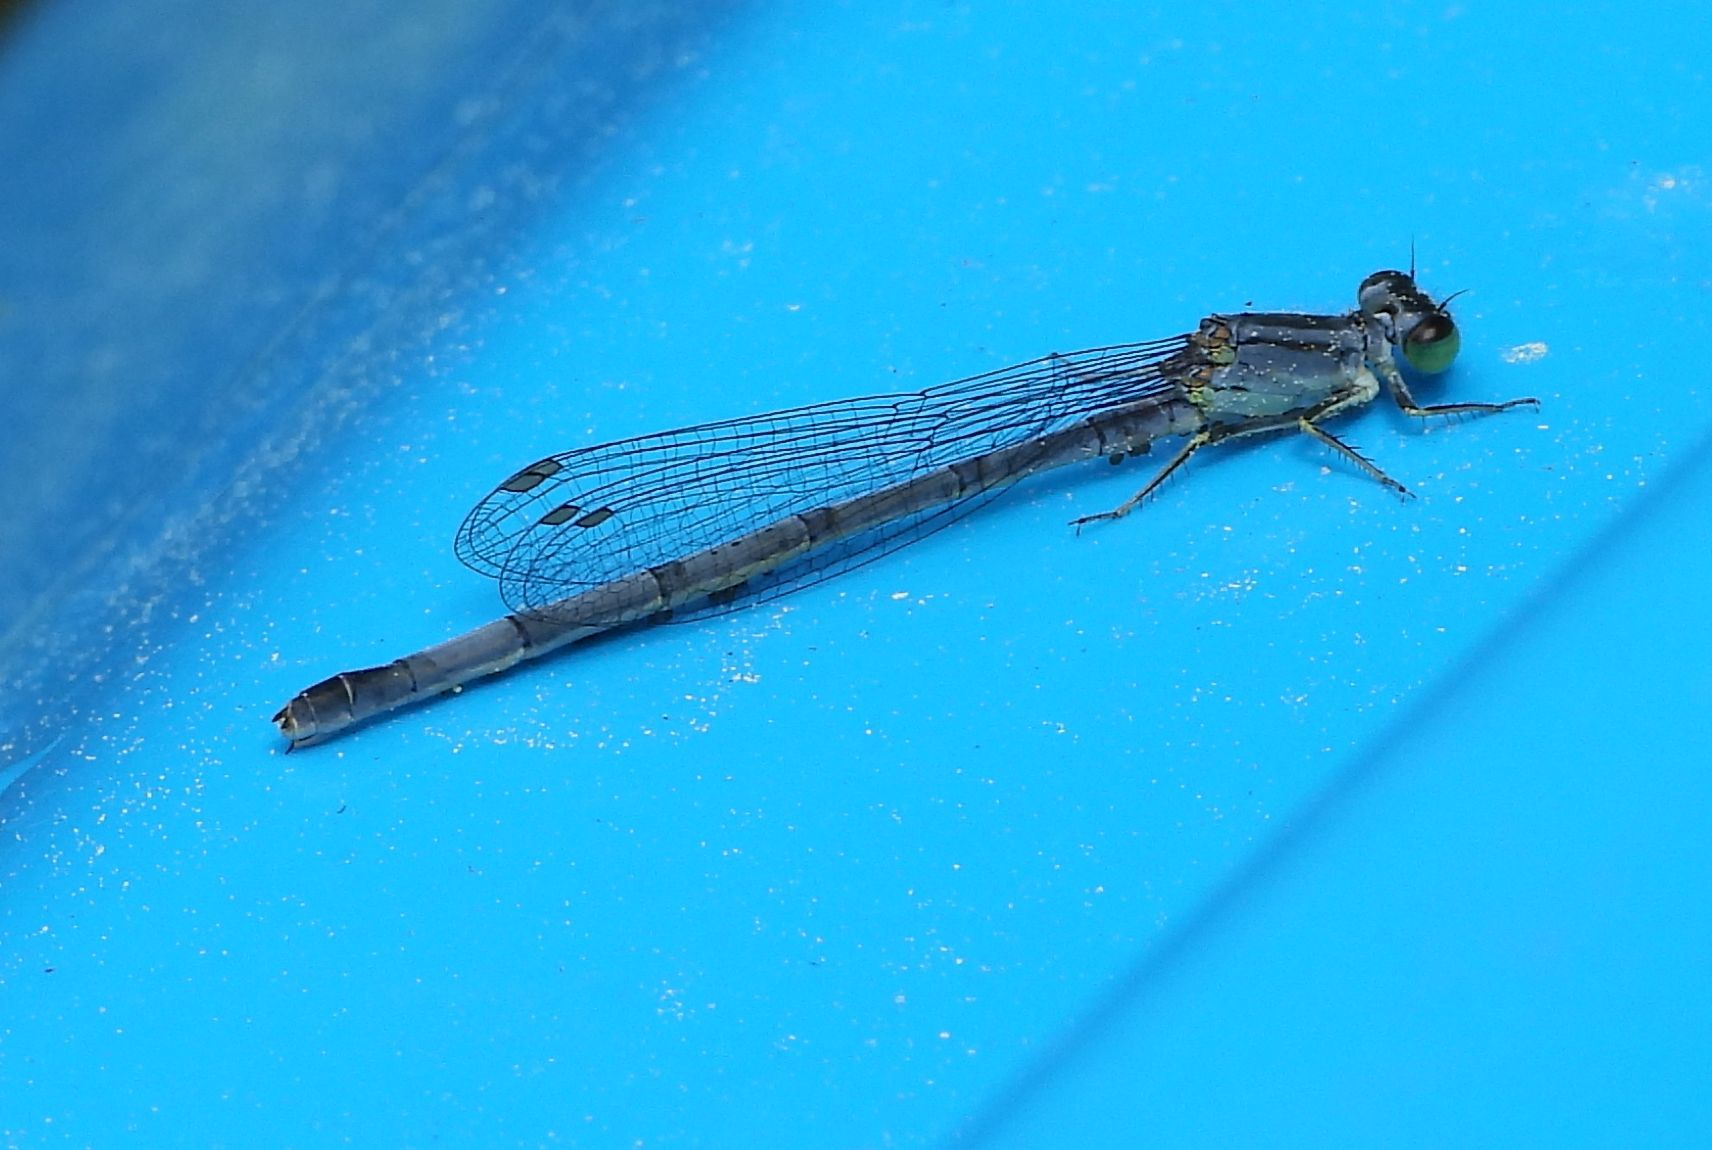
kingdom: Animalia
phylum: Arthropoda
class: Insecta
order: Odonata
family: Coenagrionidae
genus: Ischnura
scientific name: Ischnura verticalis
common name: Eastern forktail
